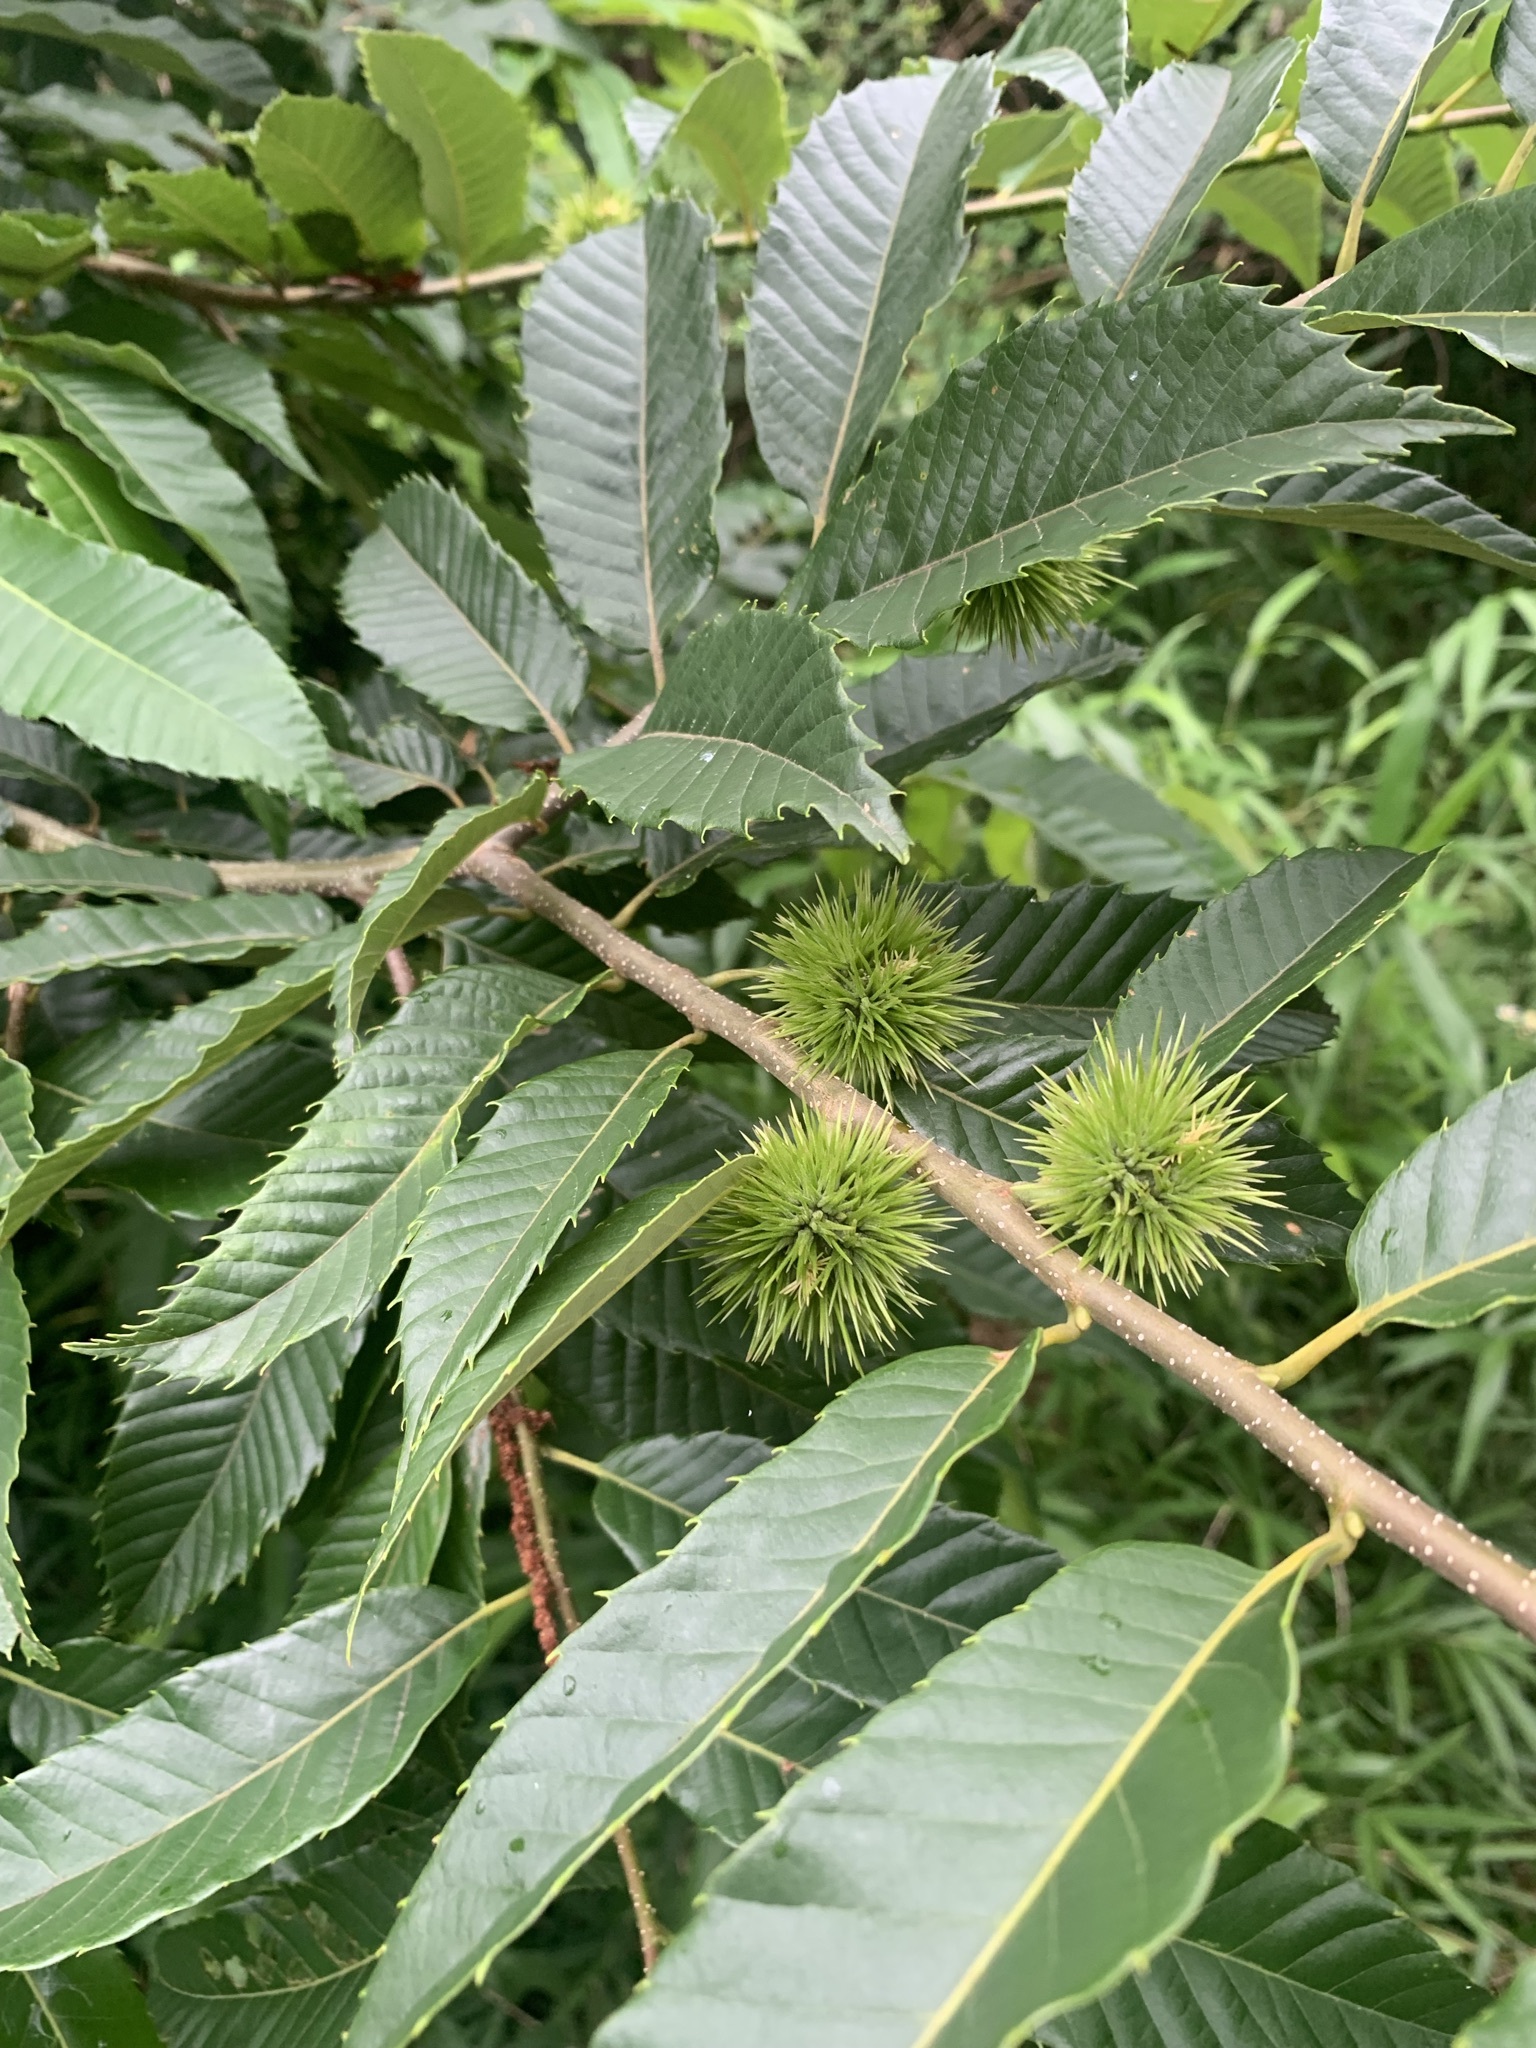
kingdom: Plantae
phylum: Tracheophyta
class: Magnoliopsida
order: Fagales
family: Fagaceae
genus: Castanea
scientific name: Castanea crenata
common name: Japanese chestnut
